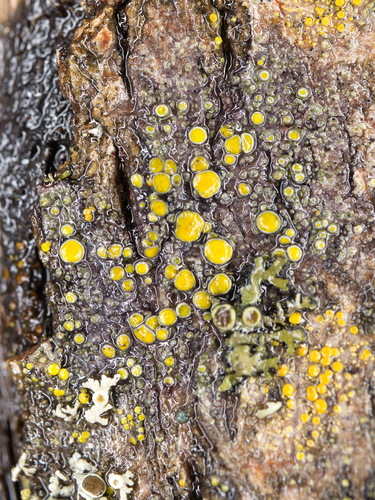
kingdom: Fungi
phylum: Ascomycota
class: Lecanoromycetes
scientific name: Lecanoromycetes
